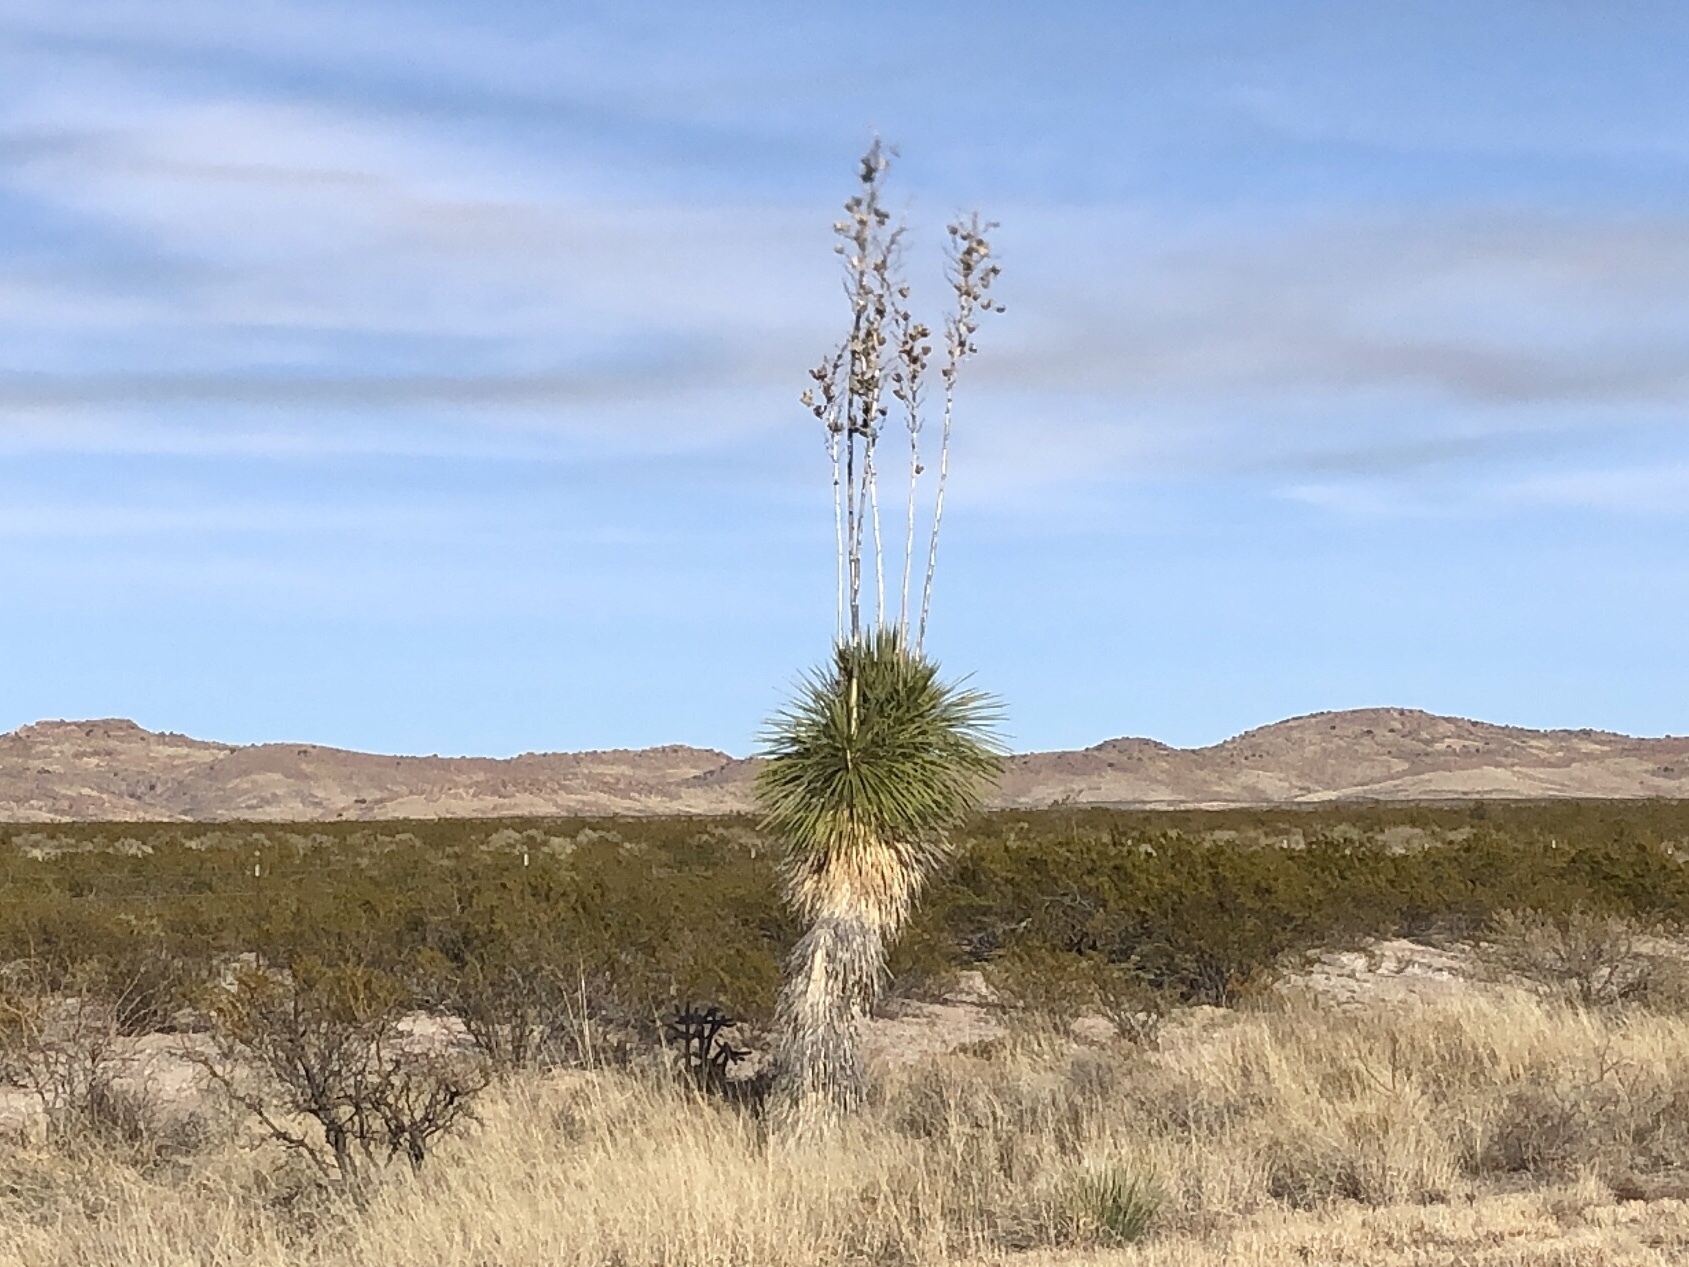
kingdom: Plantae
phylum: Tracheophyta
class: Liliopsida
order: Asparagales
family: Asparagaceae
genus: Yucca
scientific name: Yucca elata
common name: Palmella
